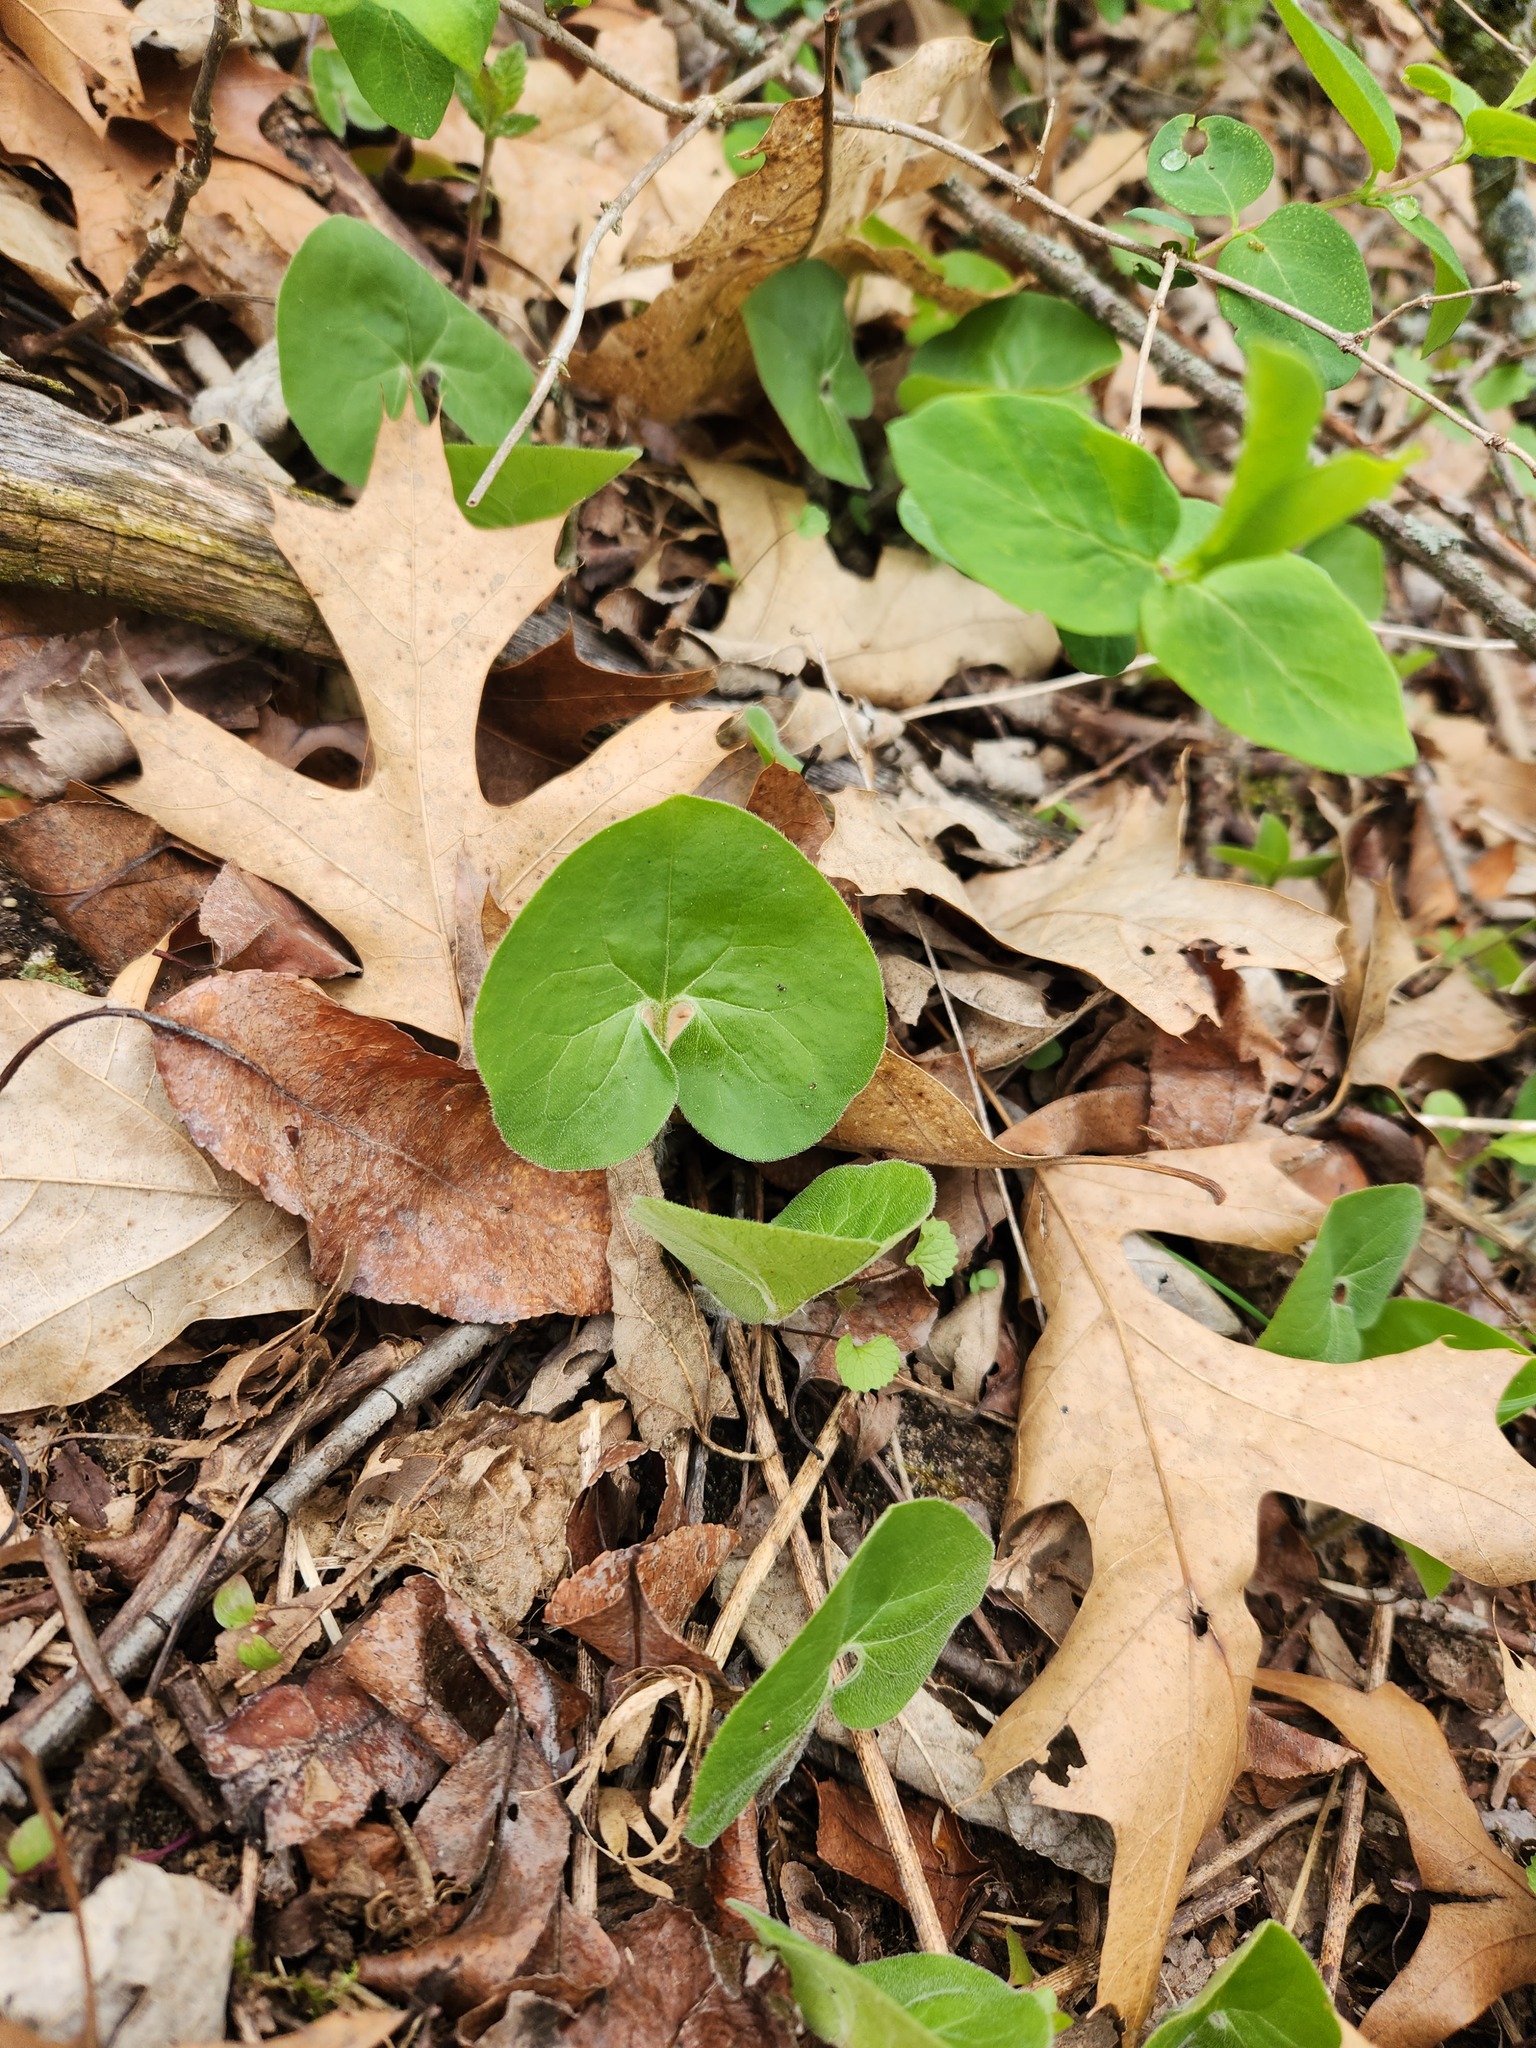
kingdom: Plantae
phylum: Tracheophyta
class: Magnoliopsida
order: Piperales
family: Aristolochiaceae
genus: Asarum
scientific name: Asarum canadense
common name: Wild ginger
